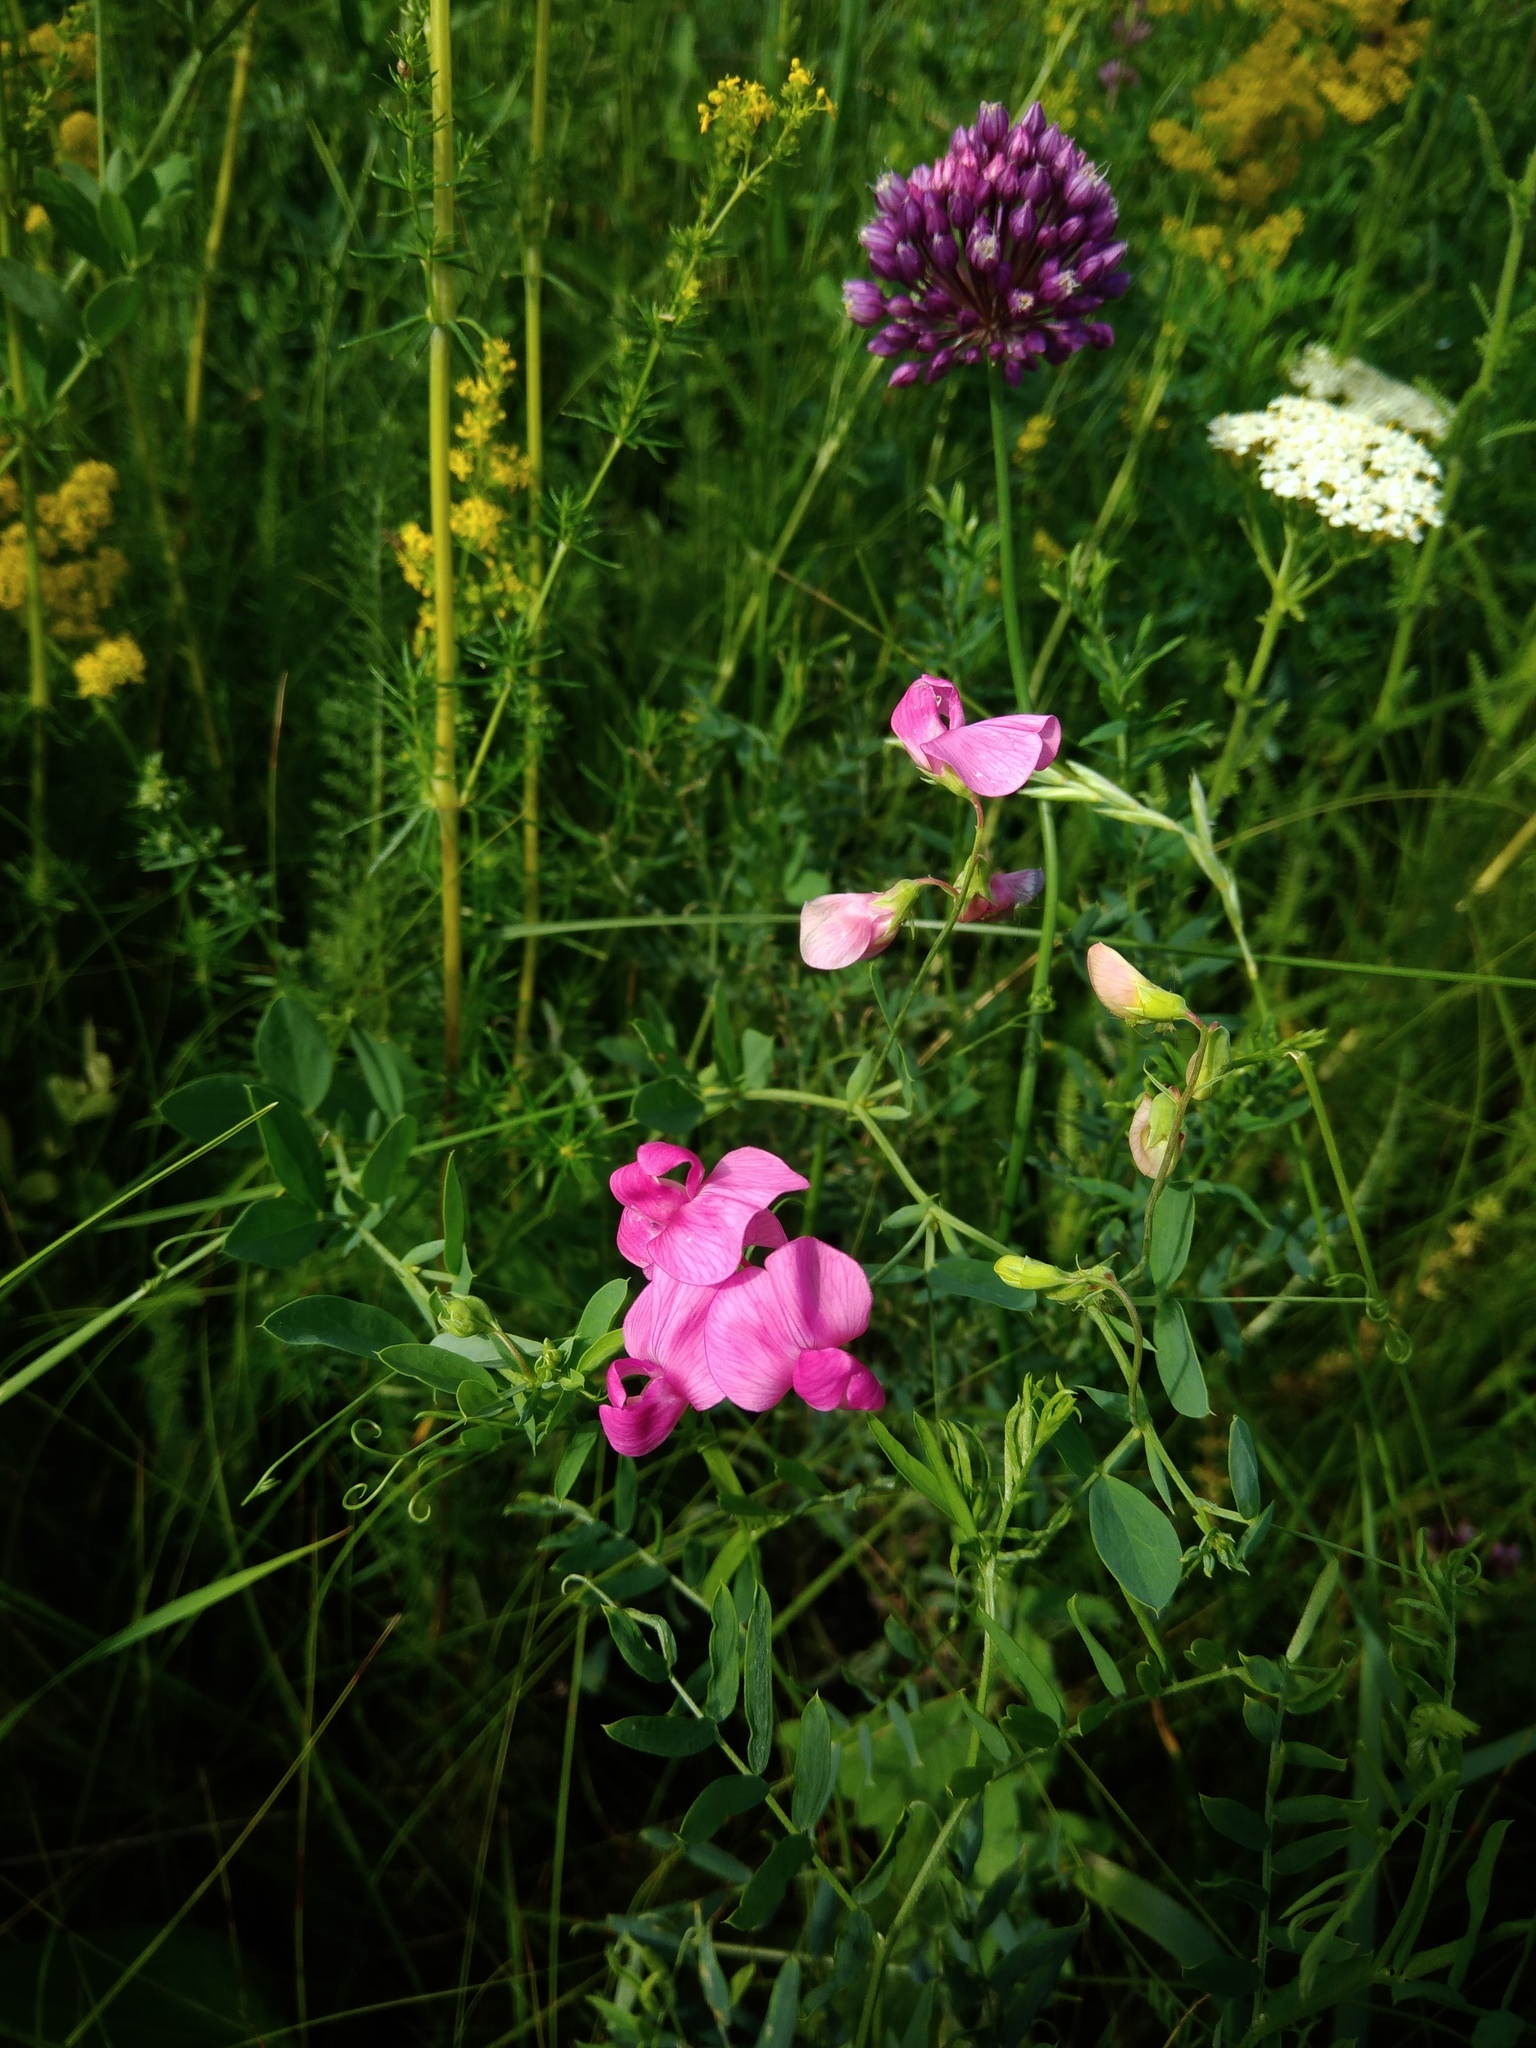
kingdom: Plantae
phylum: Tracheophyta
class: Magnoliopsida
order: Fabales
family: Fabaceae
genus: Lathyrus
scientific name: Lathyrus tuberosus
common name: Tuberous pea
